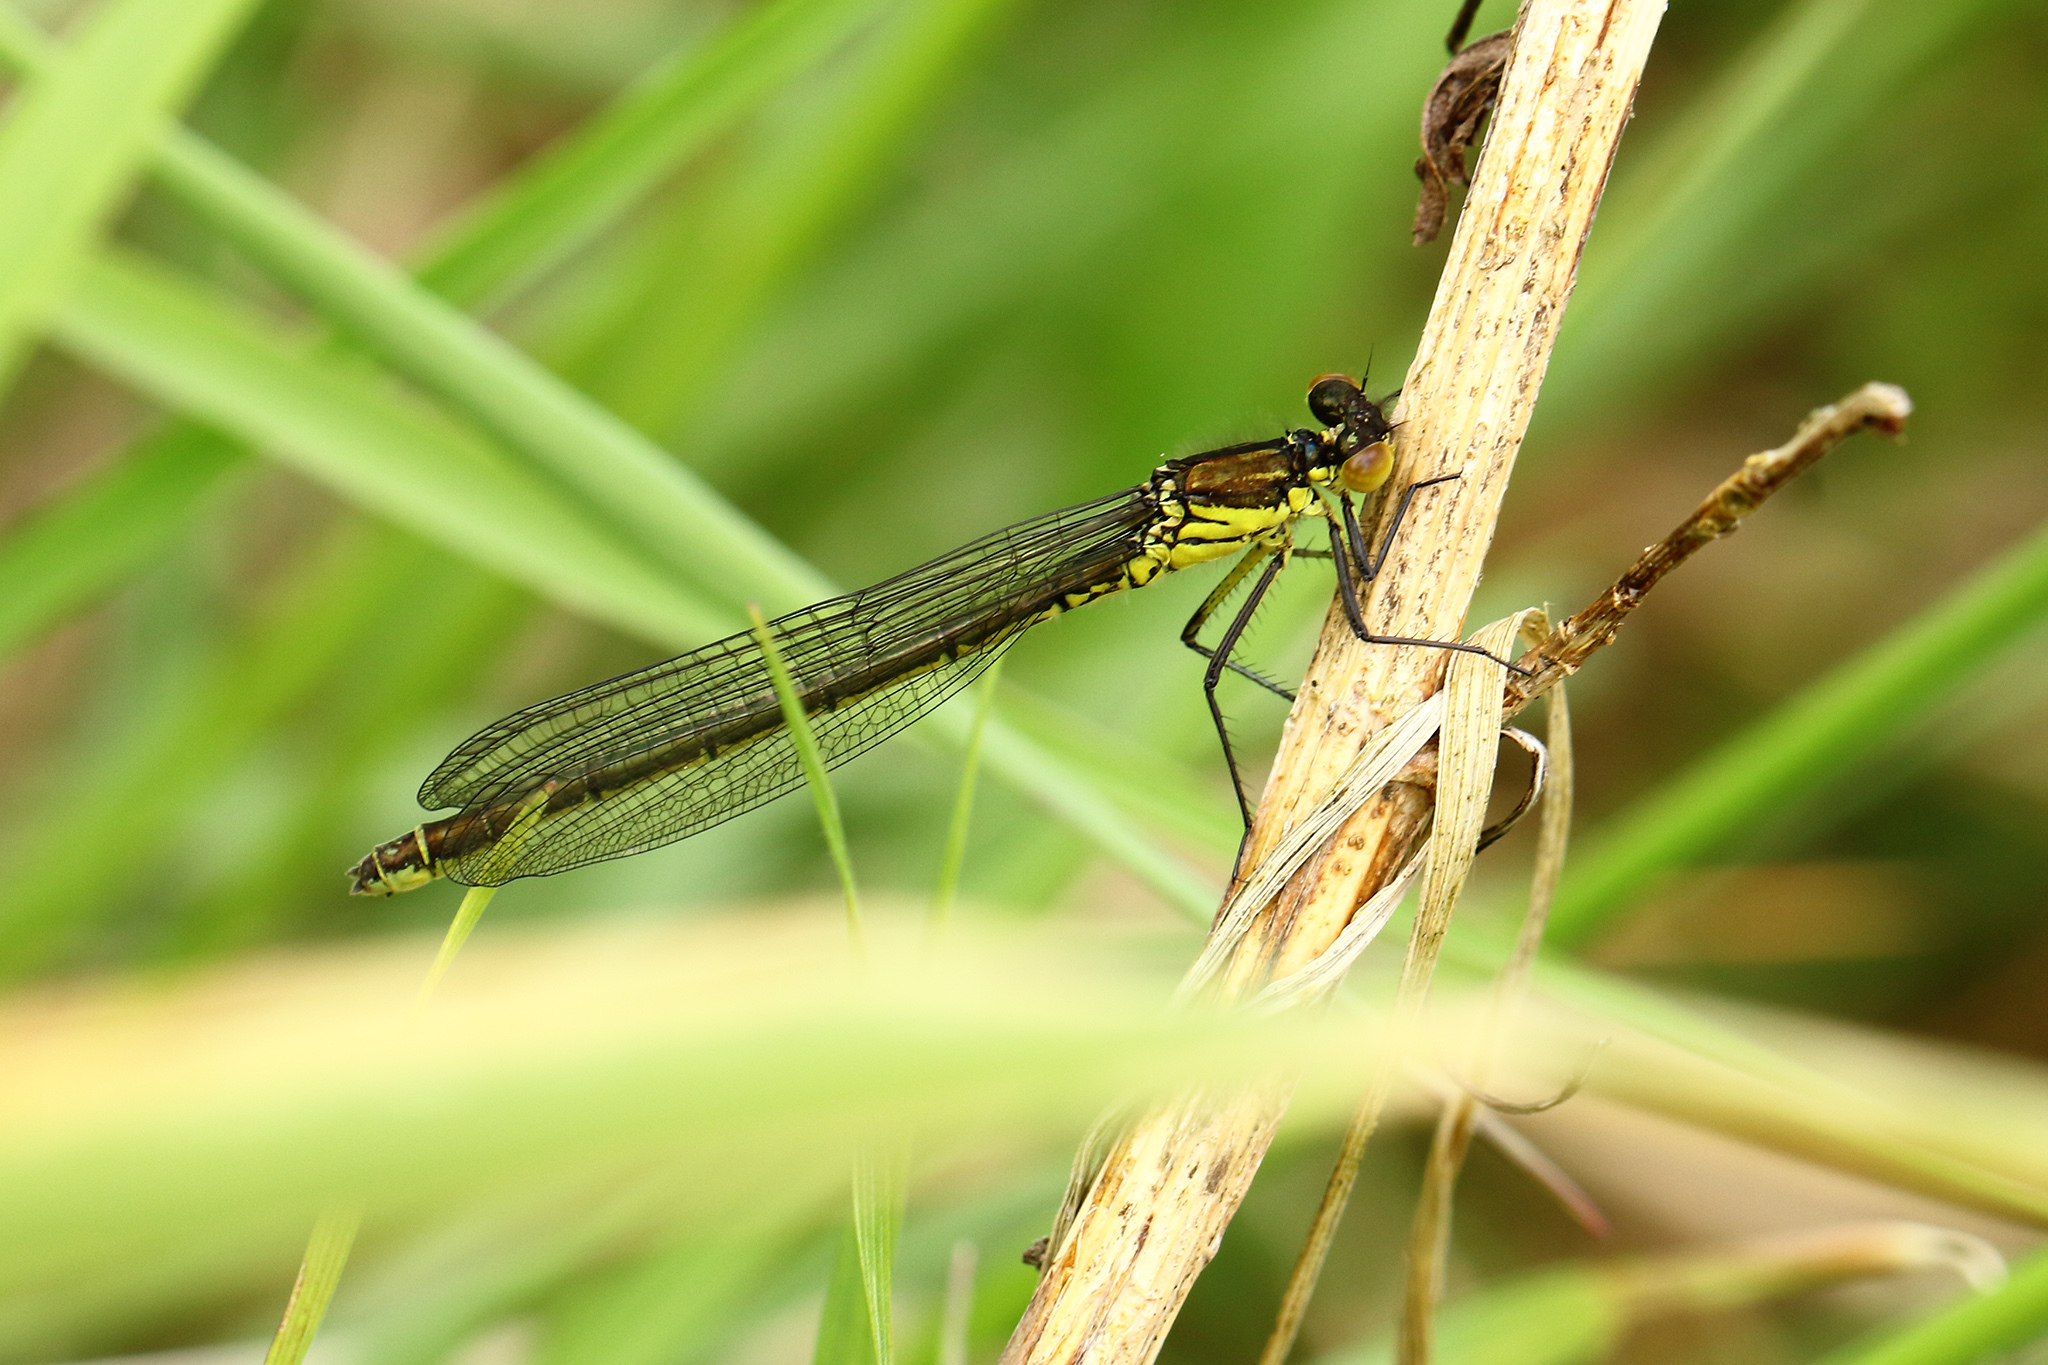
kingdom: Animalia
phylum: Arthropoda
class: Insecta
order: Odonata
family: Coenagrionidae
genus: Erythromma
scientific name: Erythromma najas
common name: Red-eyed damselfly
